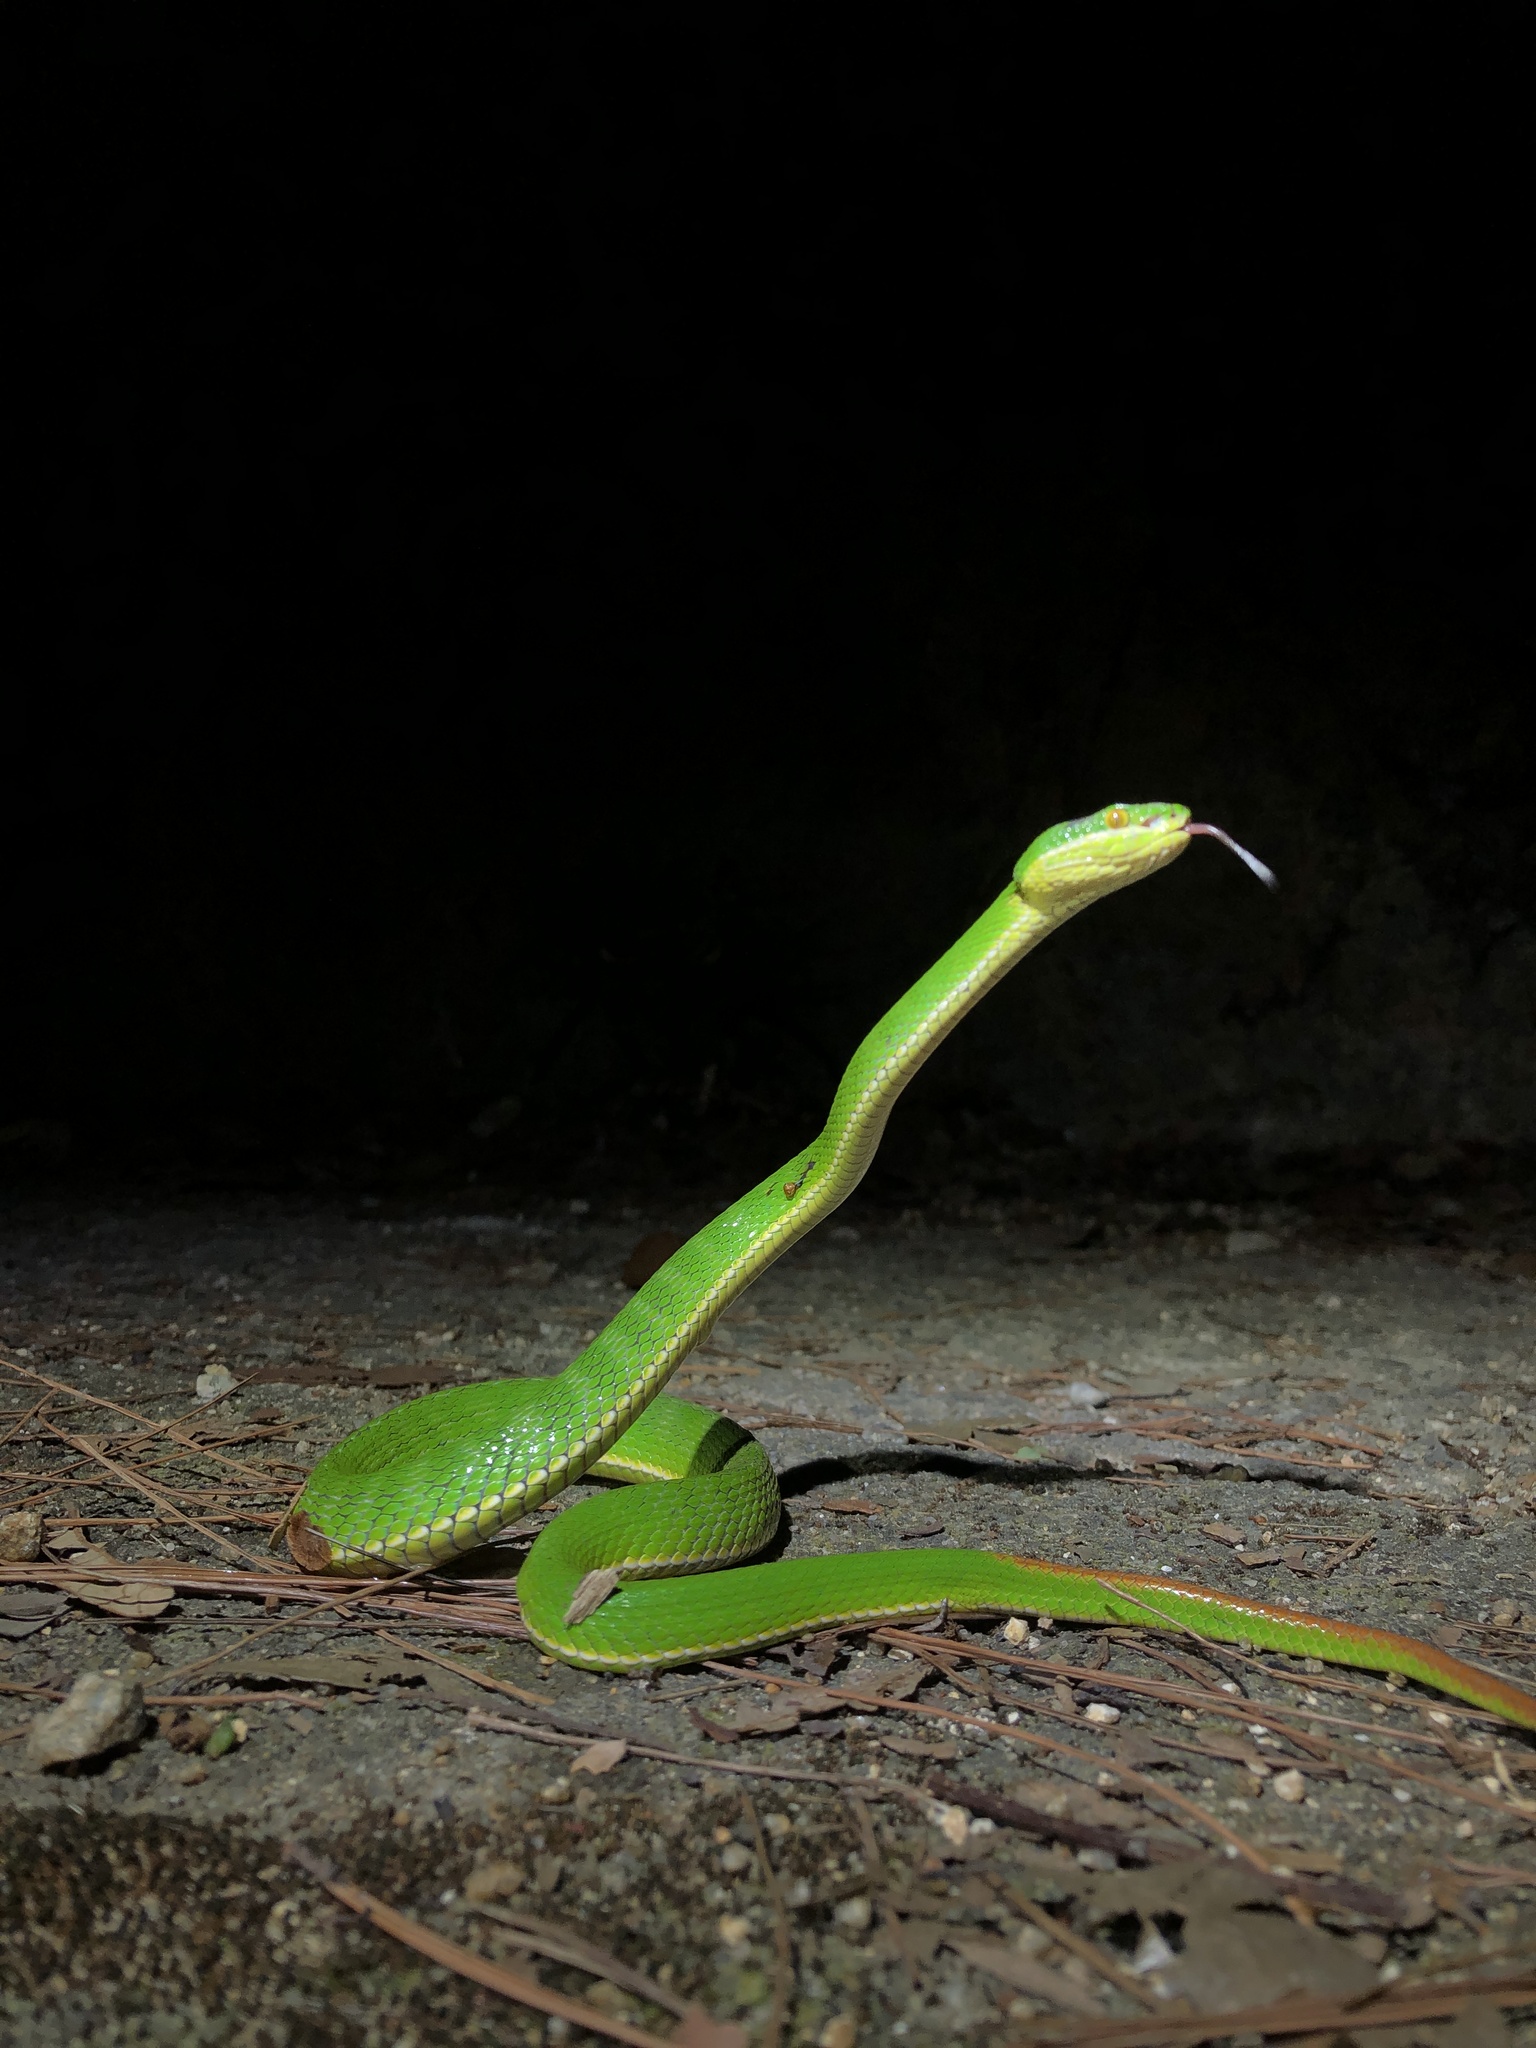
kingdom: Animalia
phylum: Chordata
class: Squamata
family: Viperidae
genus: Trimeresurus
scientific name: Trimeresurus albolabris
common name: White-lipped pitviper
